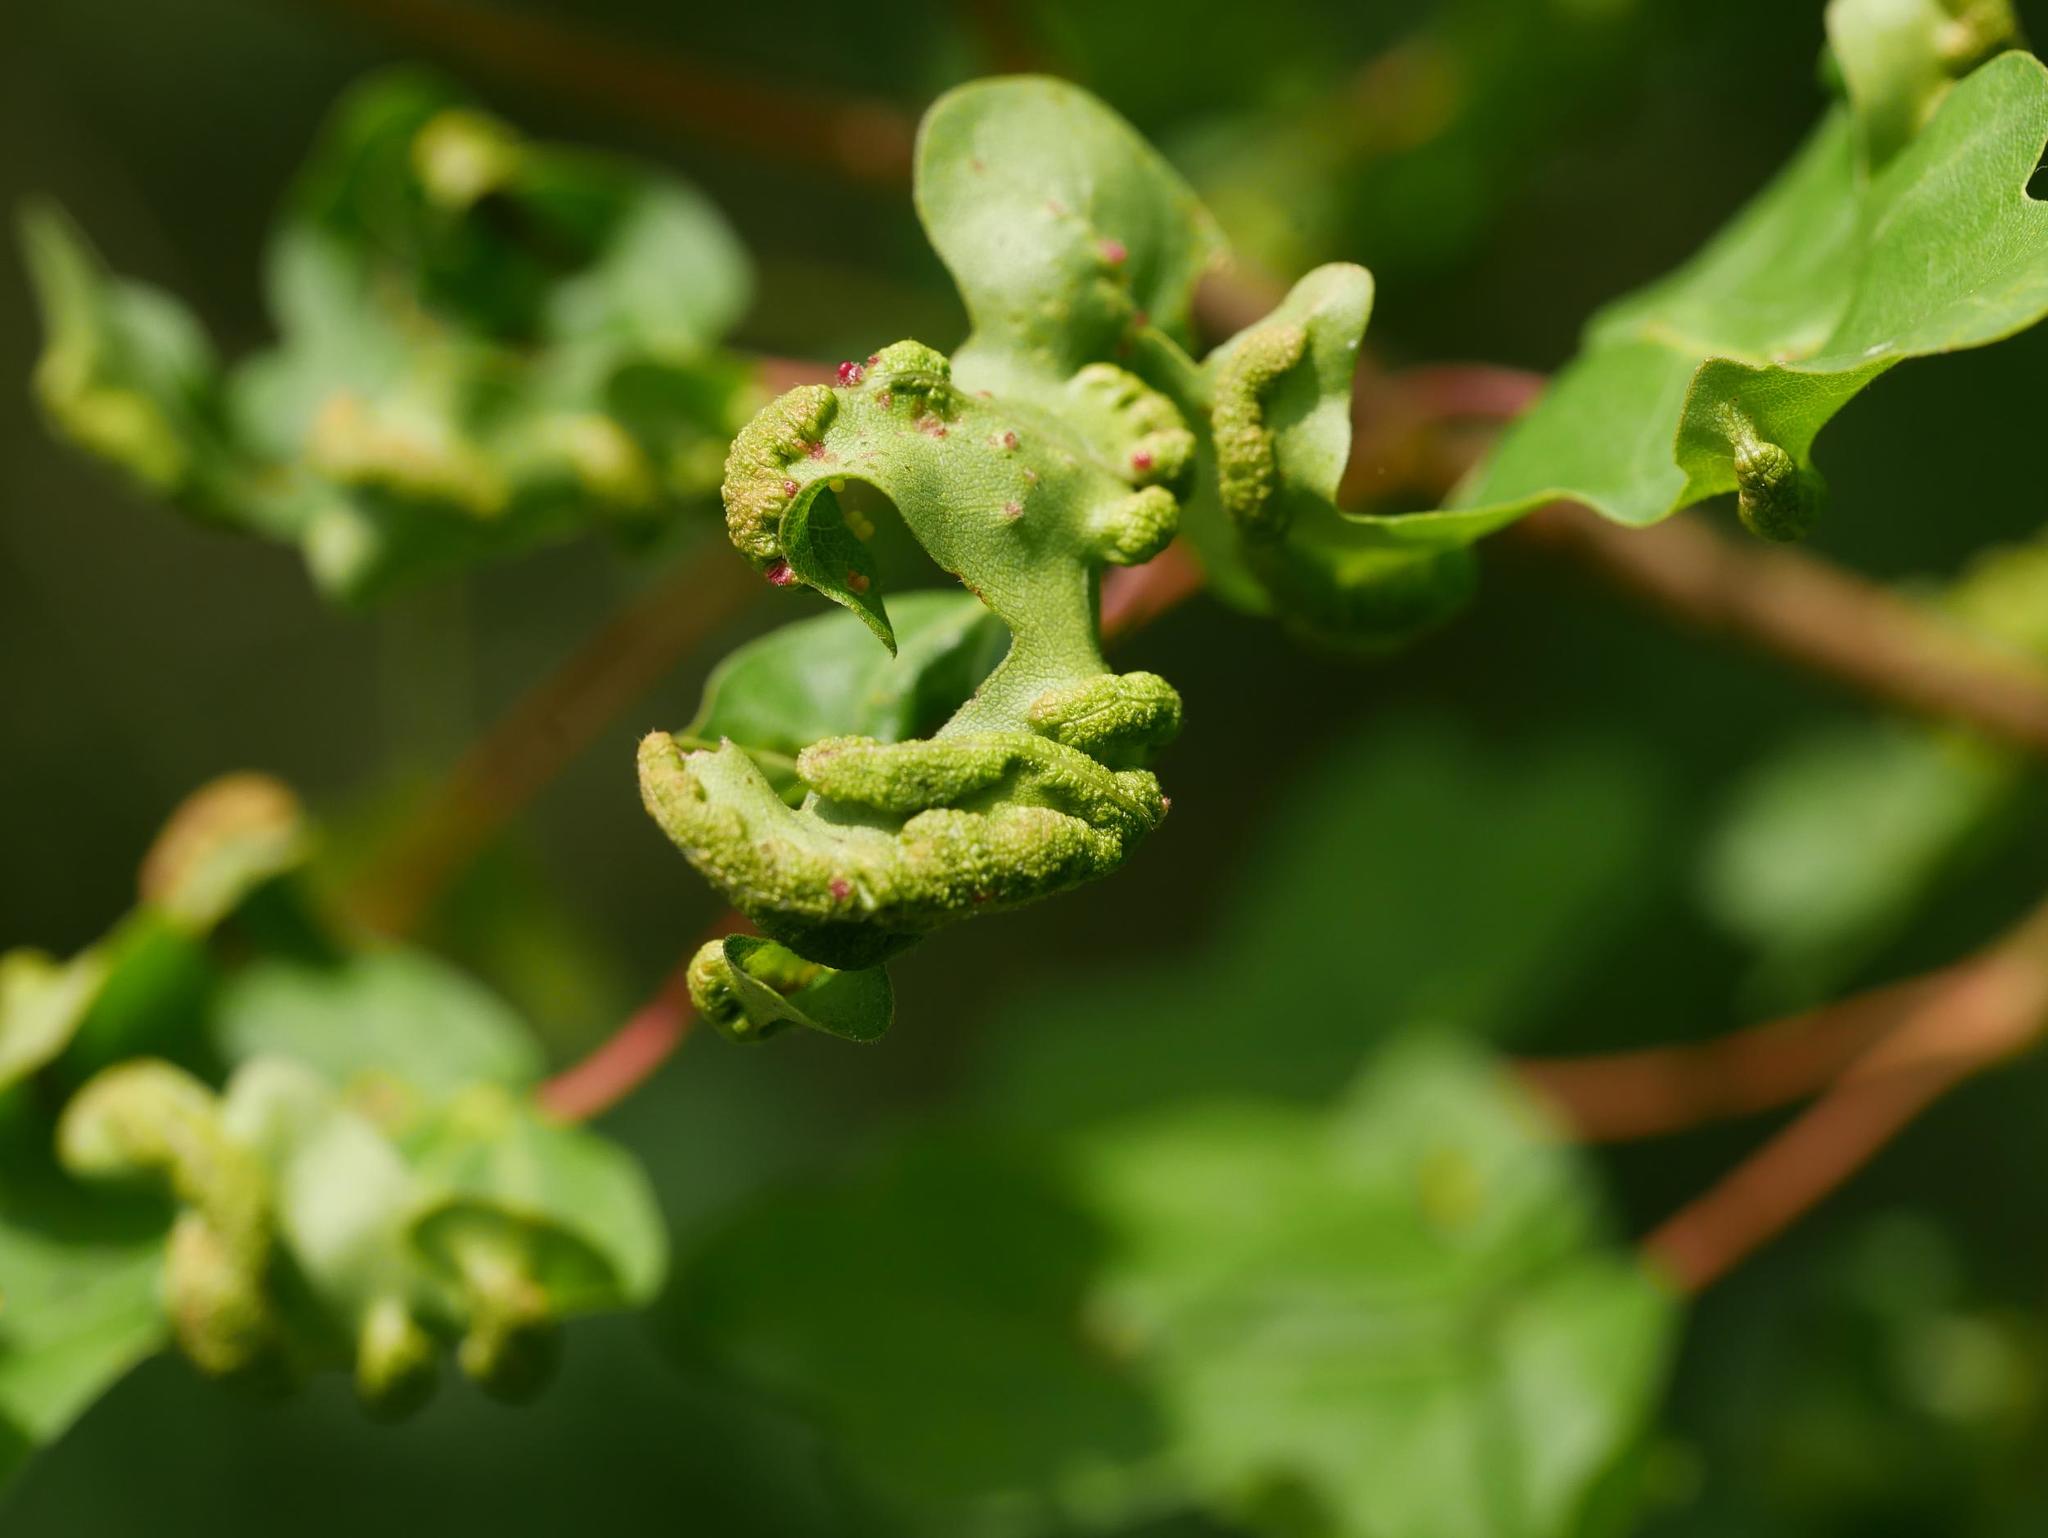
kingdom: Animalia
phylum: Arthropoda
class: Arachnida
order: Trombidiformes
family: Eriophyidae
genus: Aceria
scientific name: Aceria carinifex
